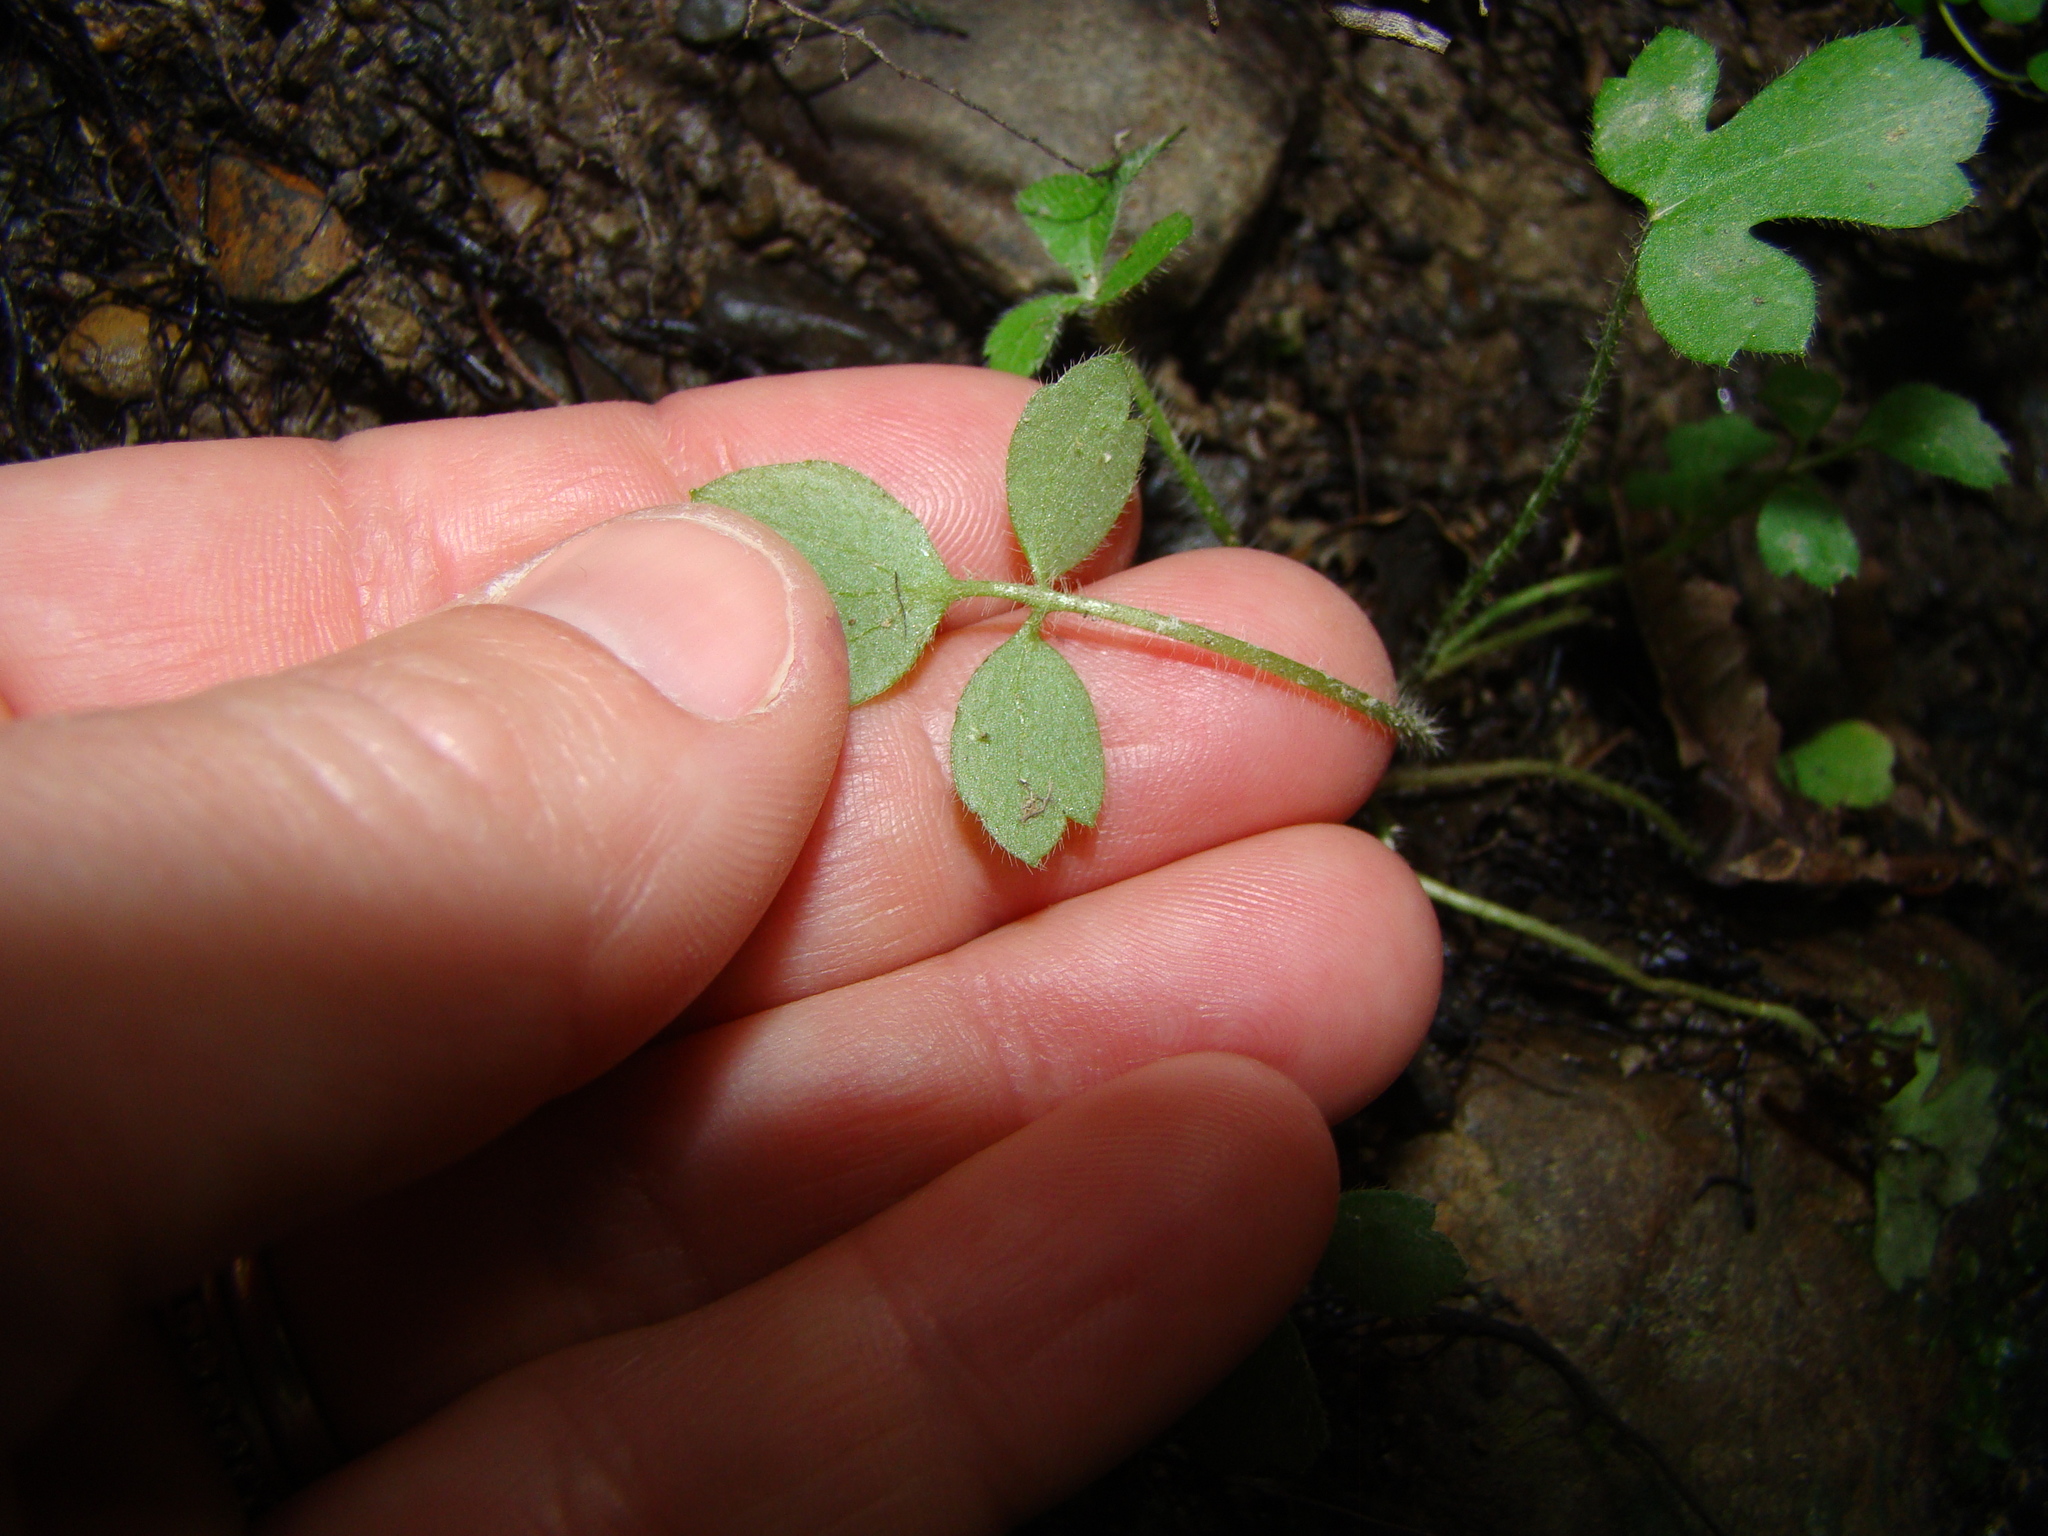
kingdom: Plantae
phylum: Tracheophyta
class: Magnoliopsida
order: Ranunculales
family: Ranunculaceae
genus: Ranunculus
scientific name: Ranunculus reflexus
